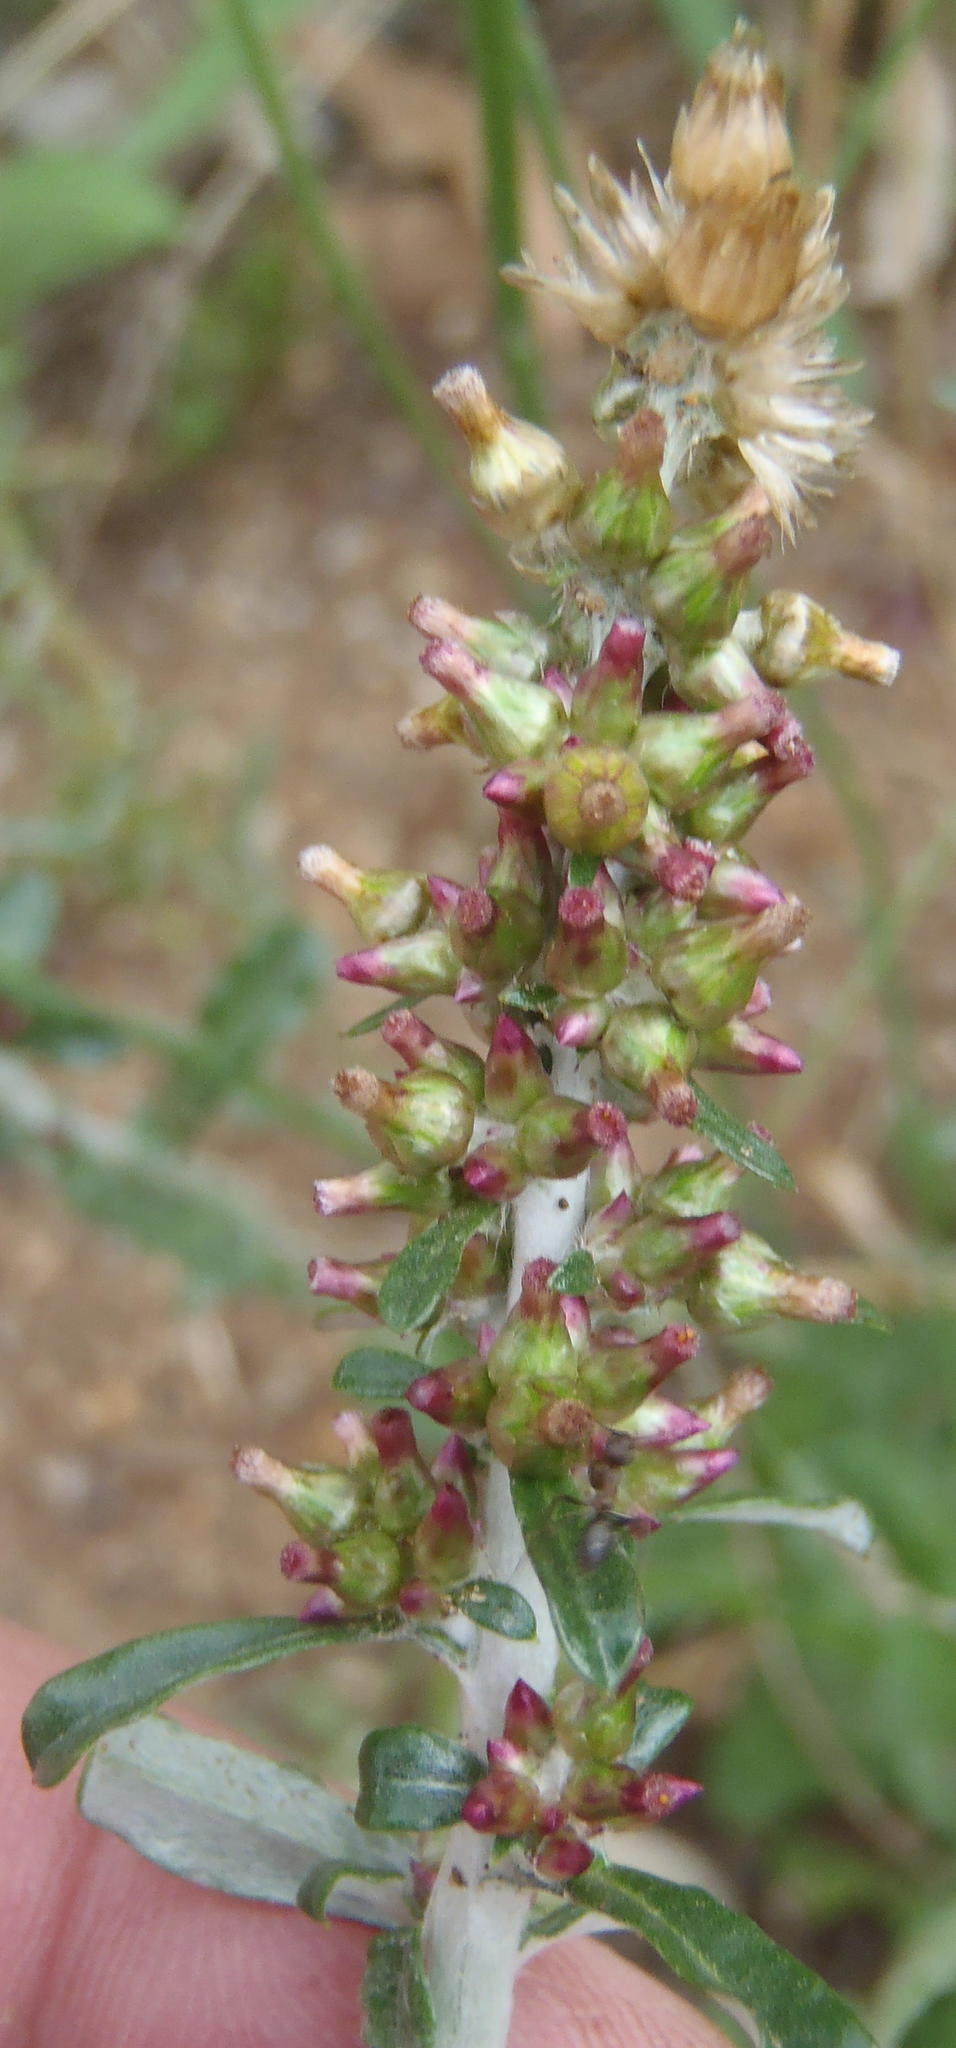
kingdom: Plantae
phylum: Tracheophyta
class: Magnoliopsida
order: Asterales
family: Asteraceae
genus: Gamochaeta
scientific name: Gamochaeta pensylvanica
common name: Pennsylvania everlasting
